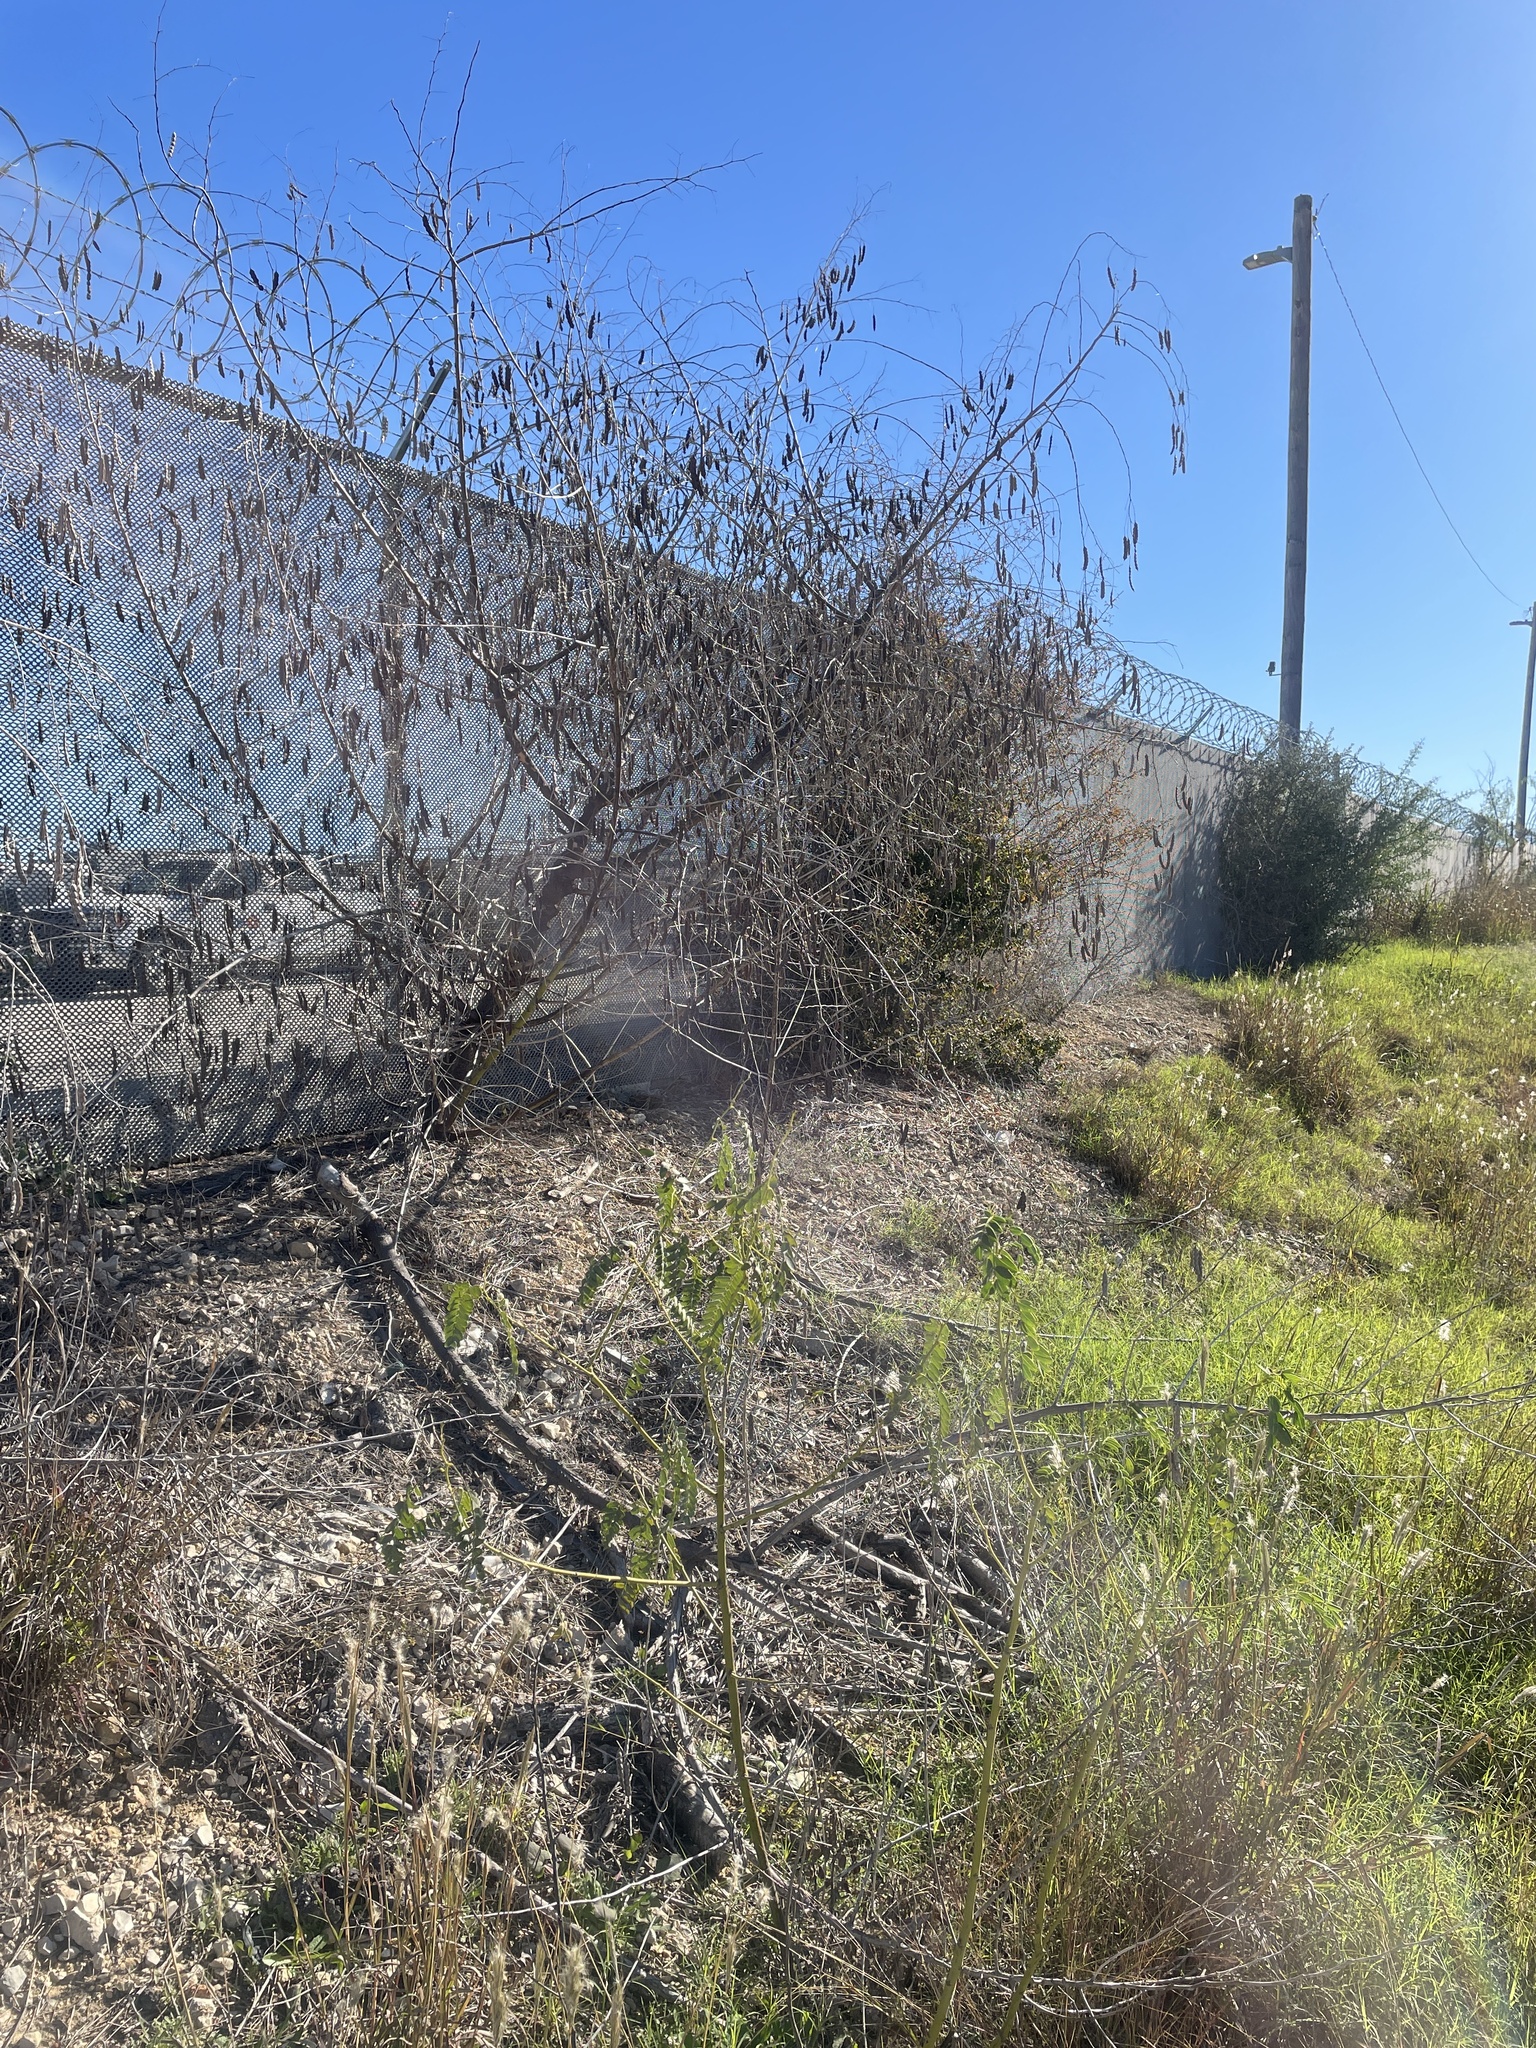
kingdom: Plantae
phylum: Tracheophyta
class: Magnoliopsida
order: Fabales
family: Fabaceae
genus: Sesbania
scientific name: Sesbania drummondii
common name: Poison-bean
